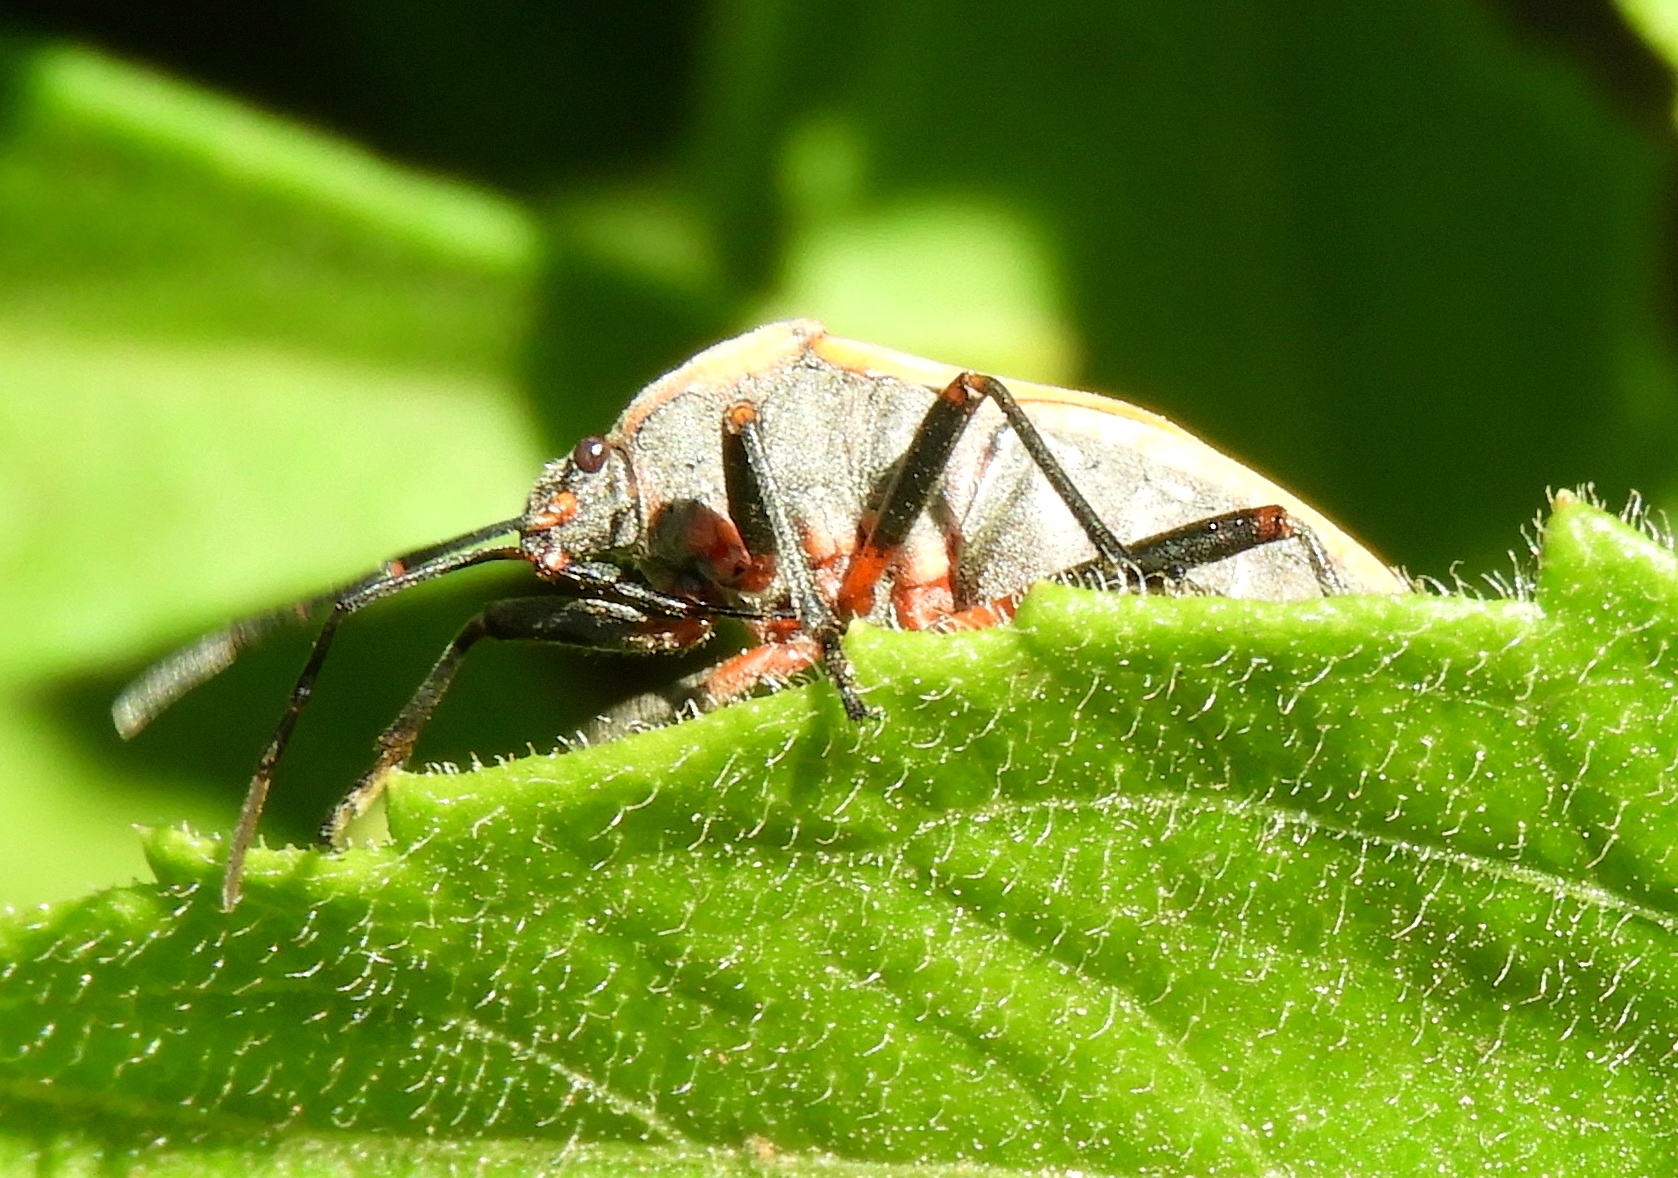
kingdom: Animalia
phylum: Arthropoda
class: Insecta
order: Hemiptera
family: Largidae
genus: Largus
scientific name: Largus
